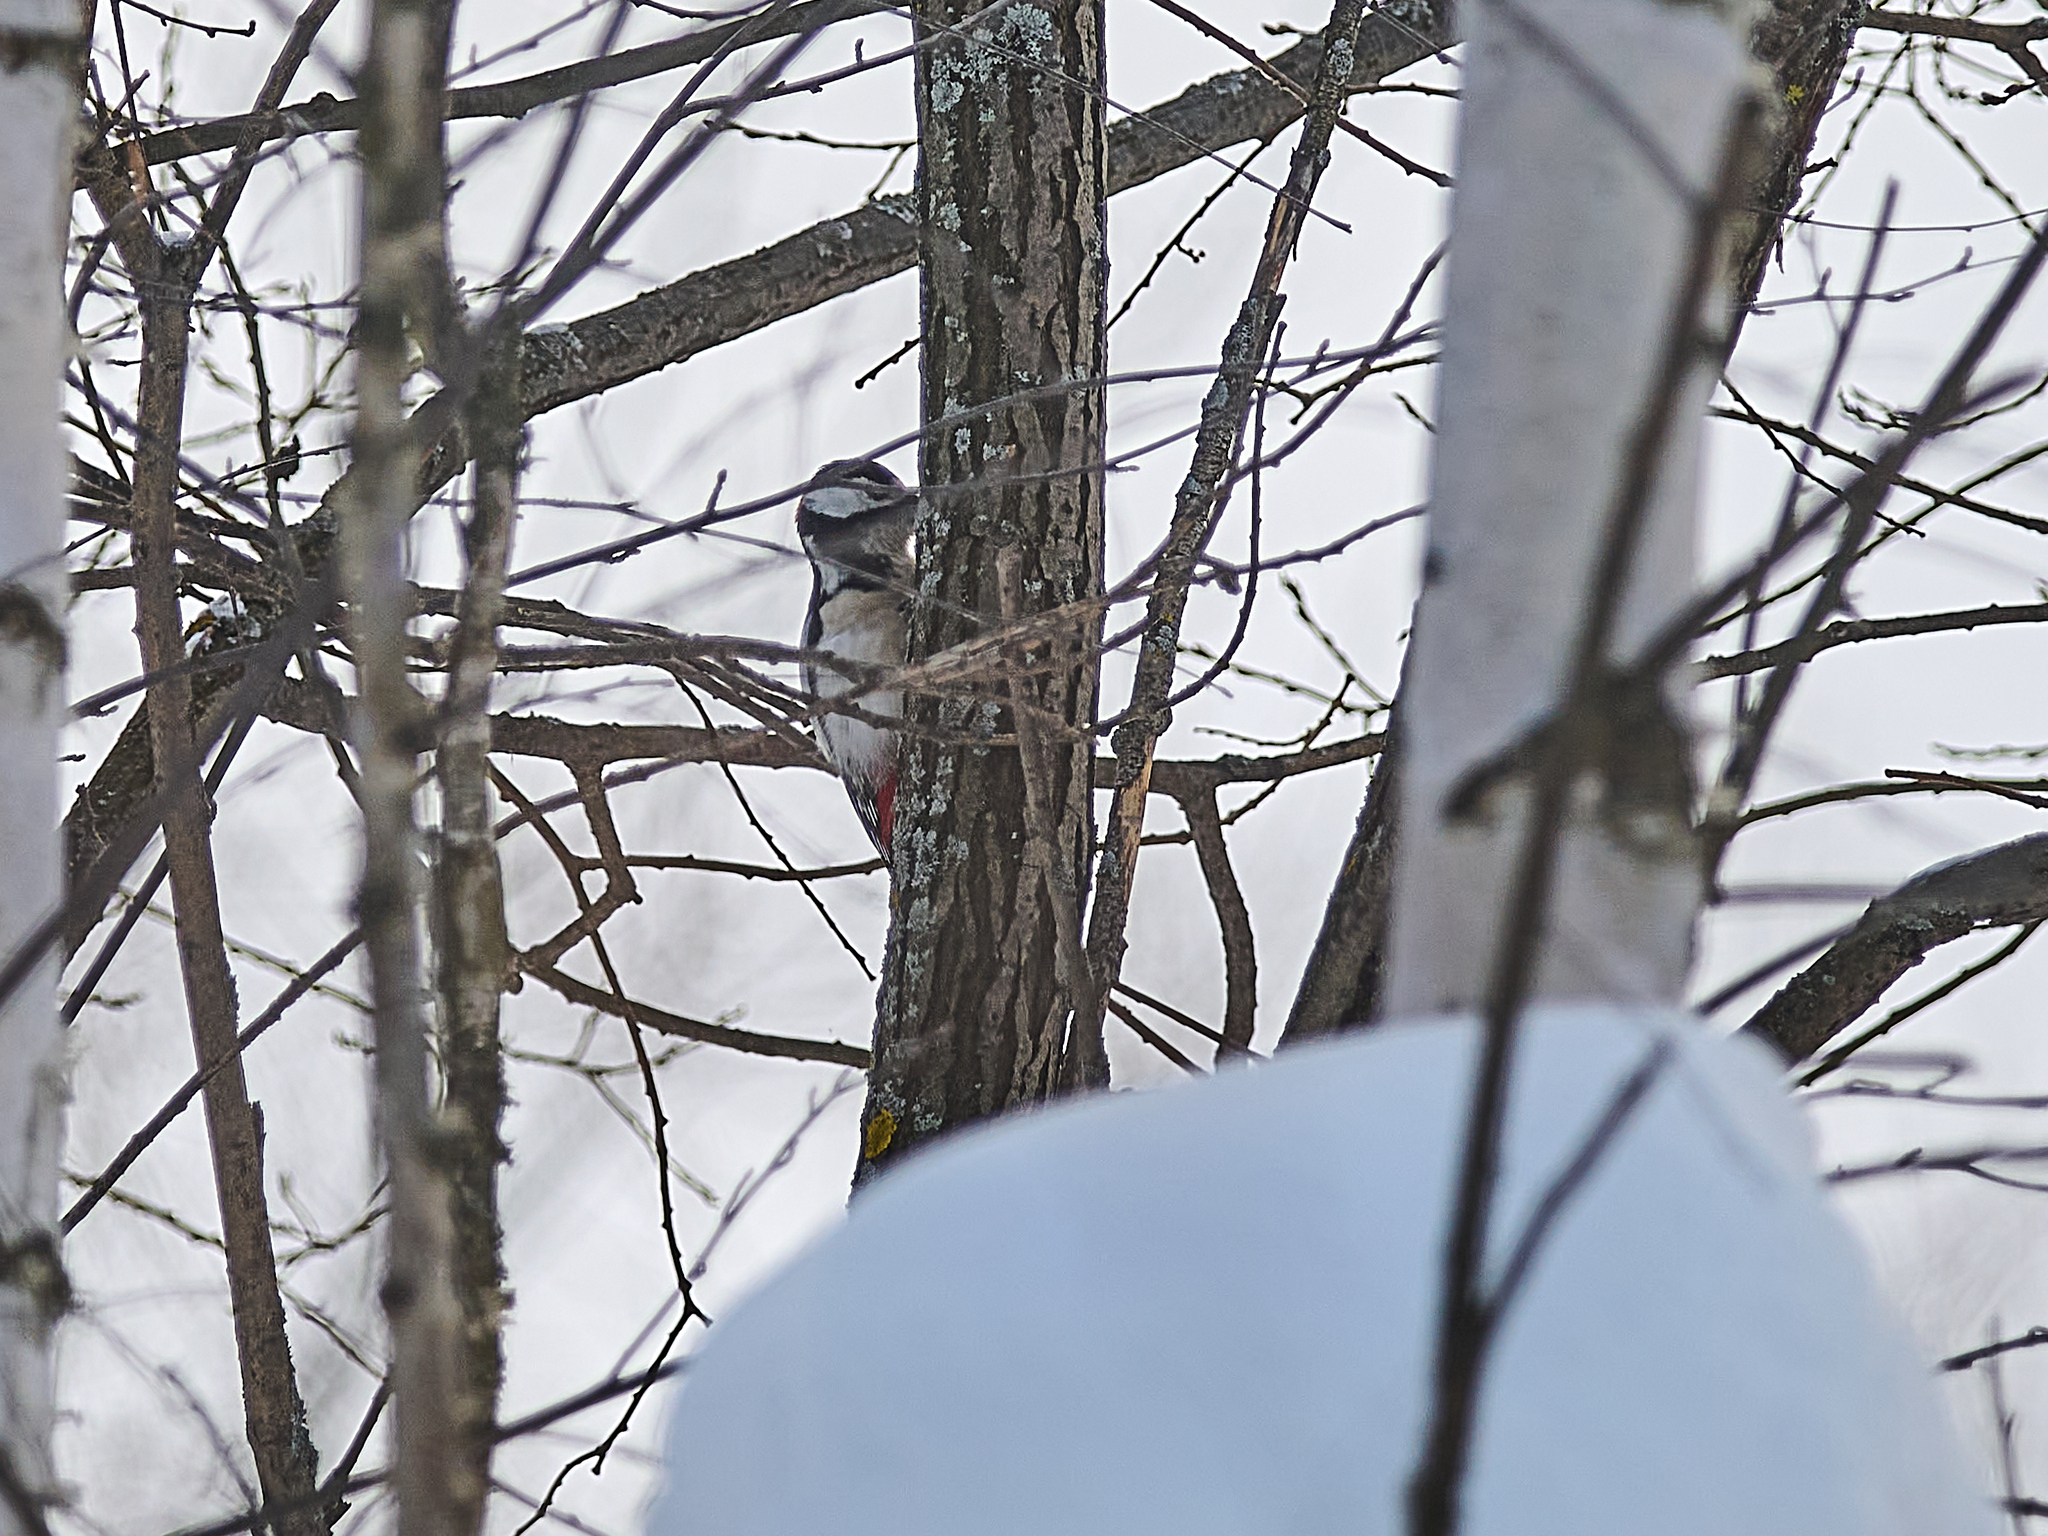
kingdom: Animalia
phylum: Chordata
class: Aves
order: Piciformes
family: Picidae
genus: Dendrocopos
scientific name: Dendrocopos major
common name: Great spotted woodpecker
